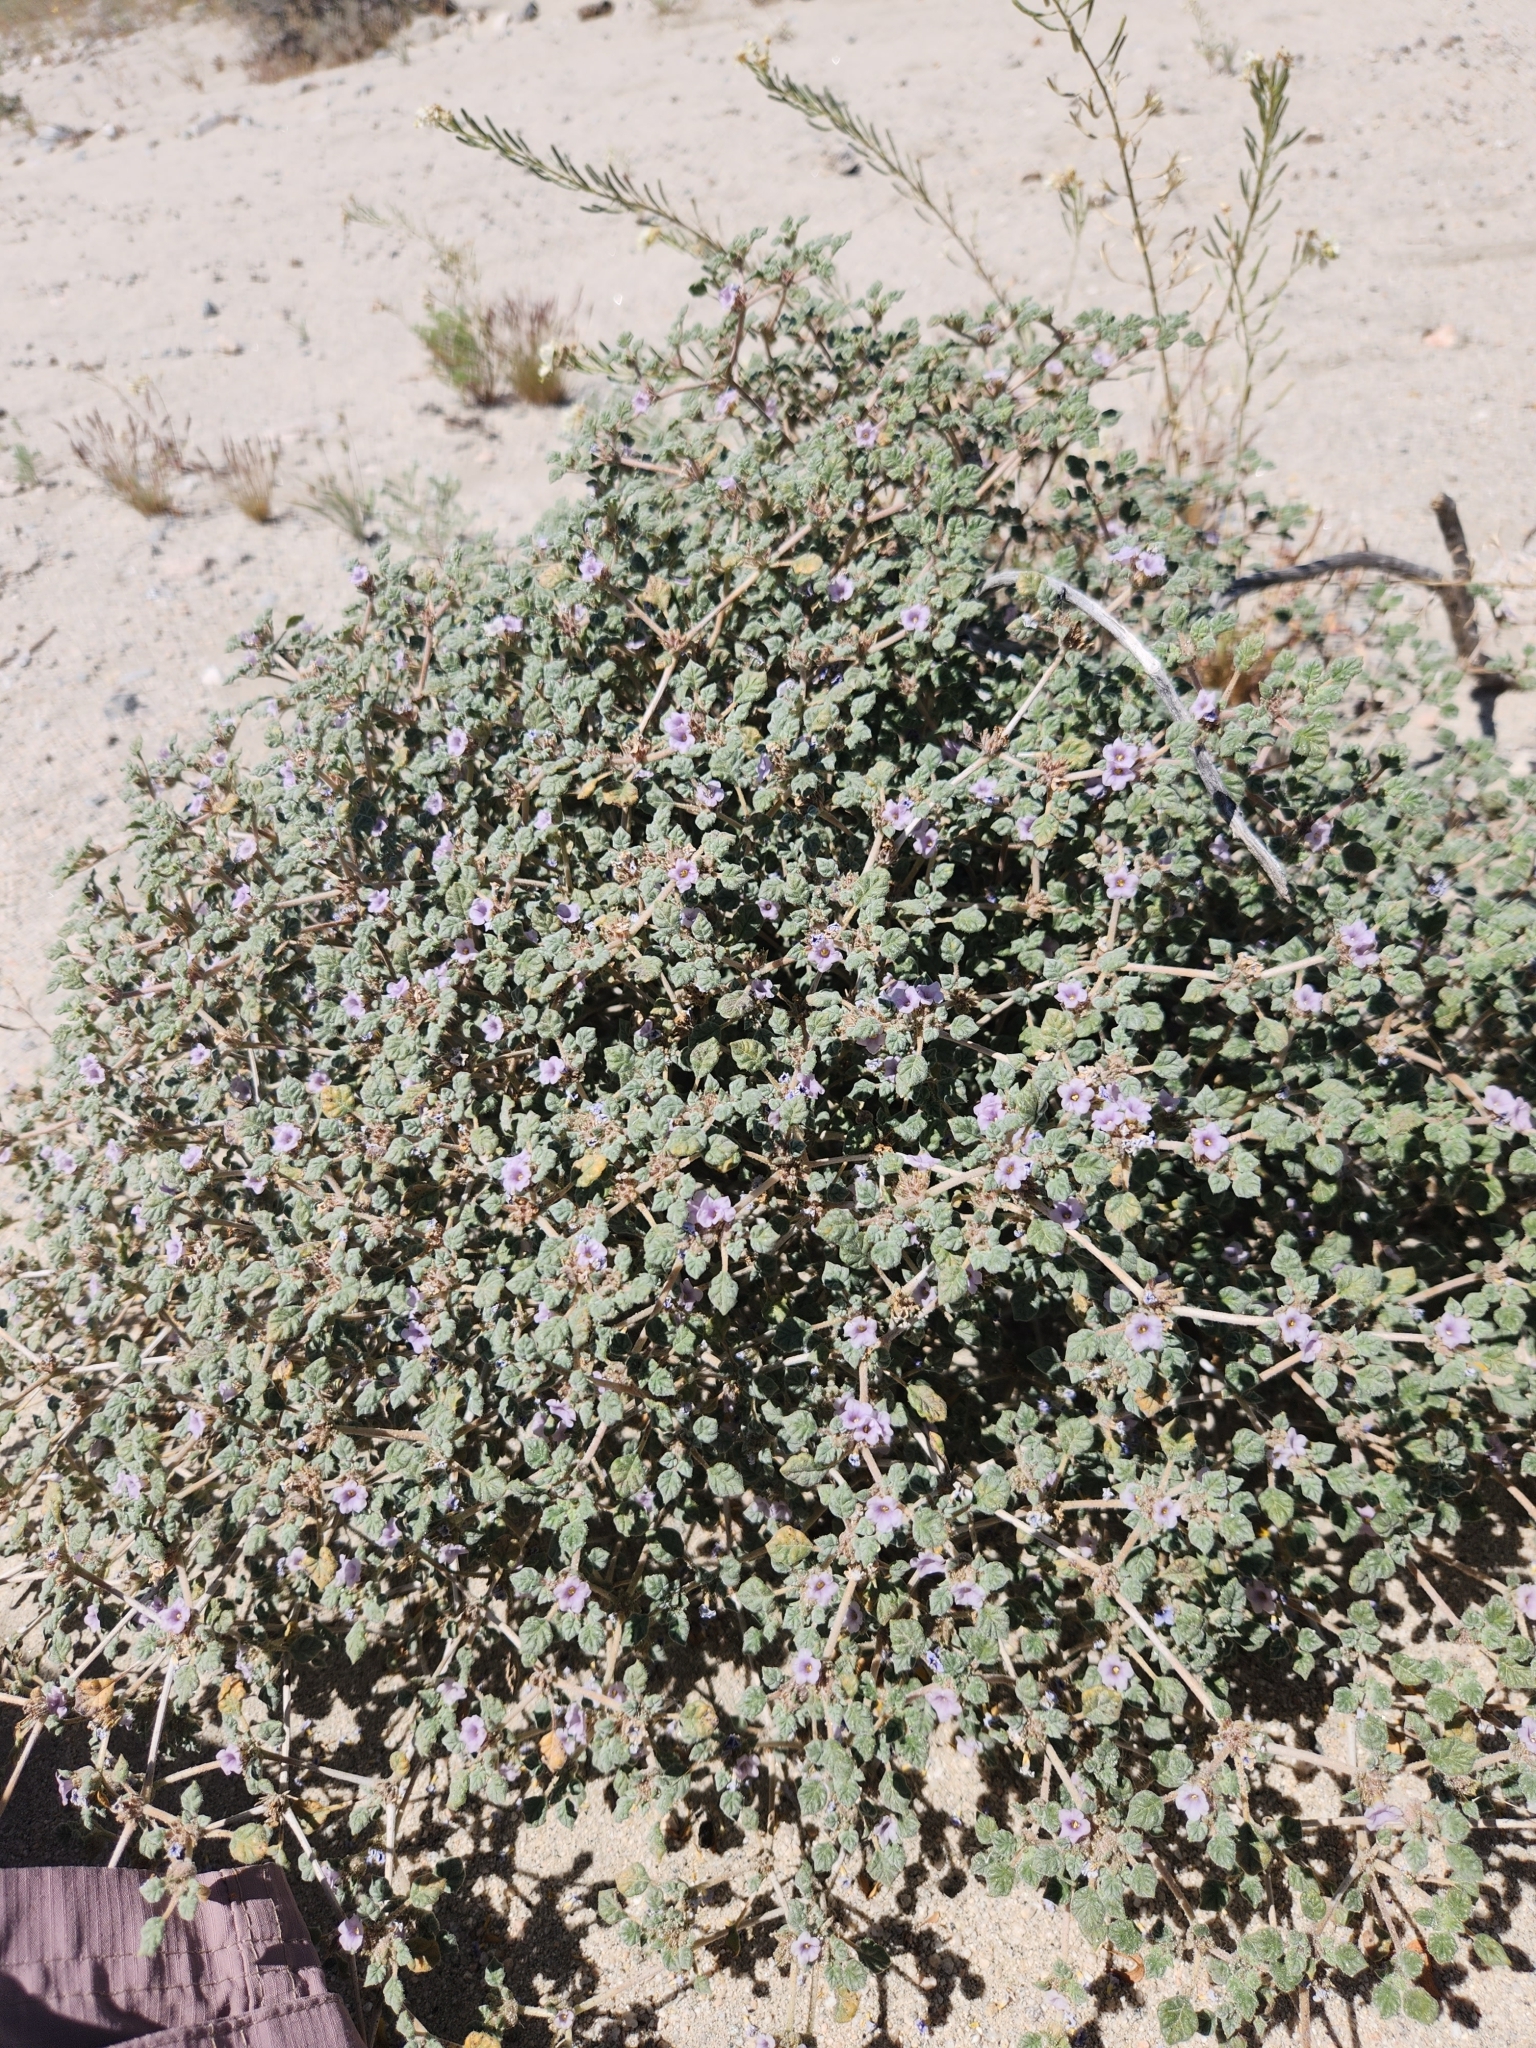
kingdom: Plantae
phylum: Tracheophyta
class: Magnoliopsida
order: Boraginales
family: Ehretiaceae
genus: Tiquilia
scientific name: Tiquilia palmeri
